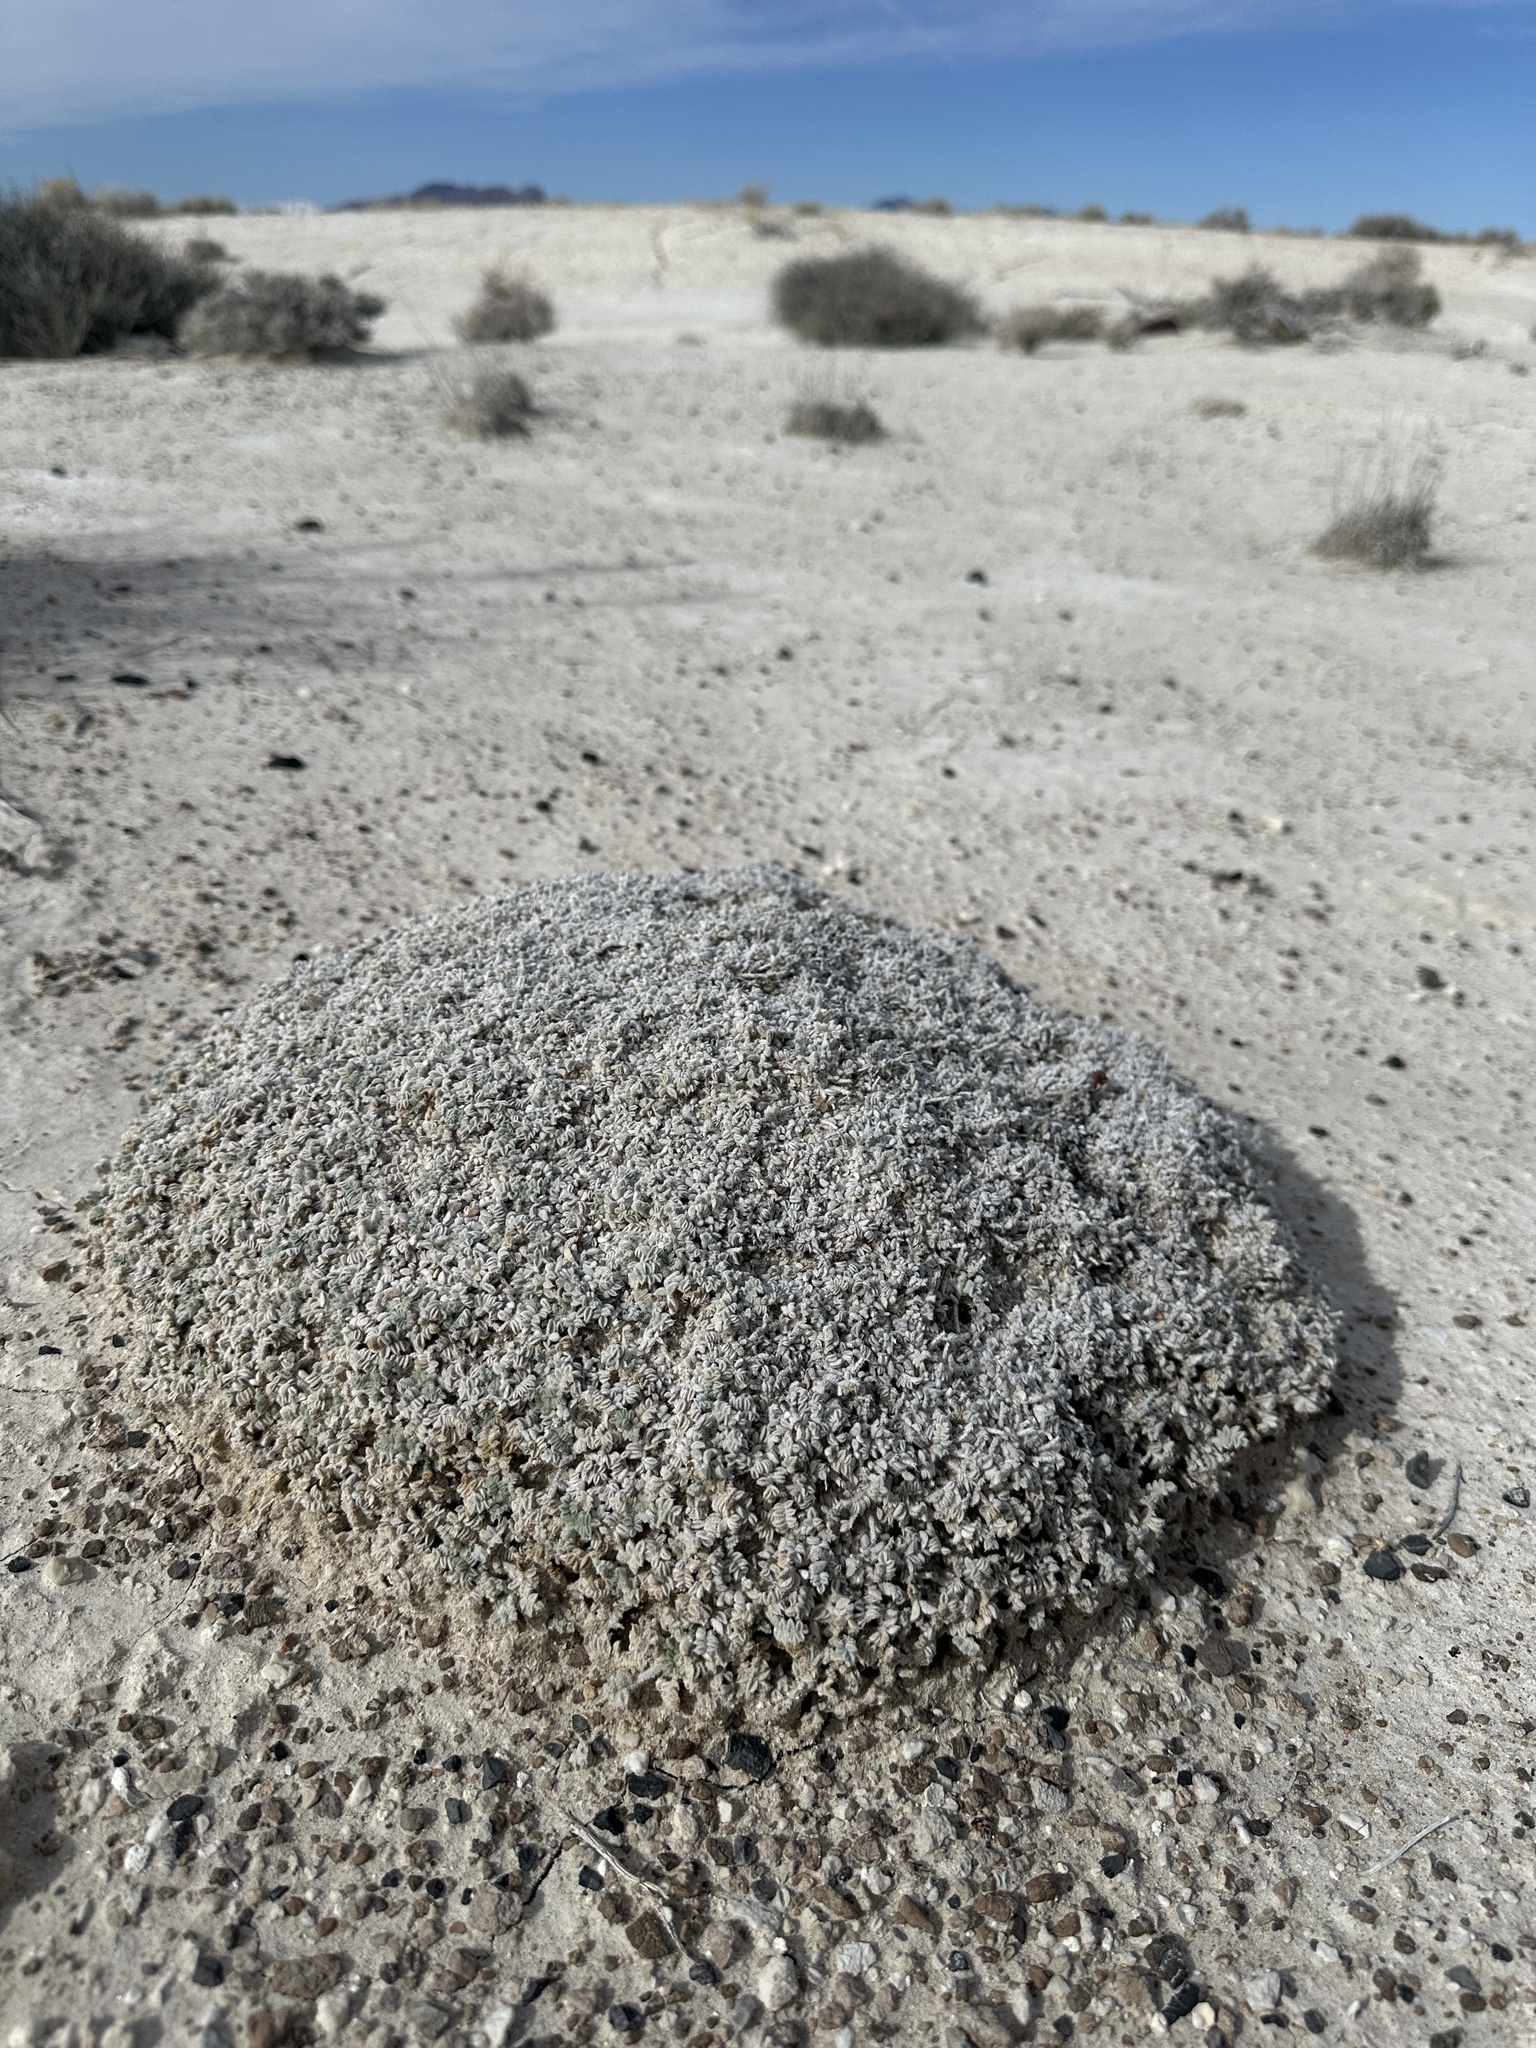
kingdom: Plantae
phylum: Tracheophyta
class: Magnoliopsida
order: Fabales
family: Fabaceae
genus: Astragalus
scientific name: Astragalus phoenix
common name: Ash meadows milk-vetch
